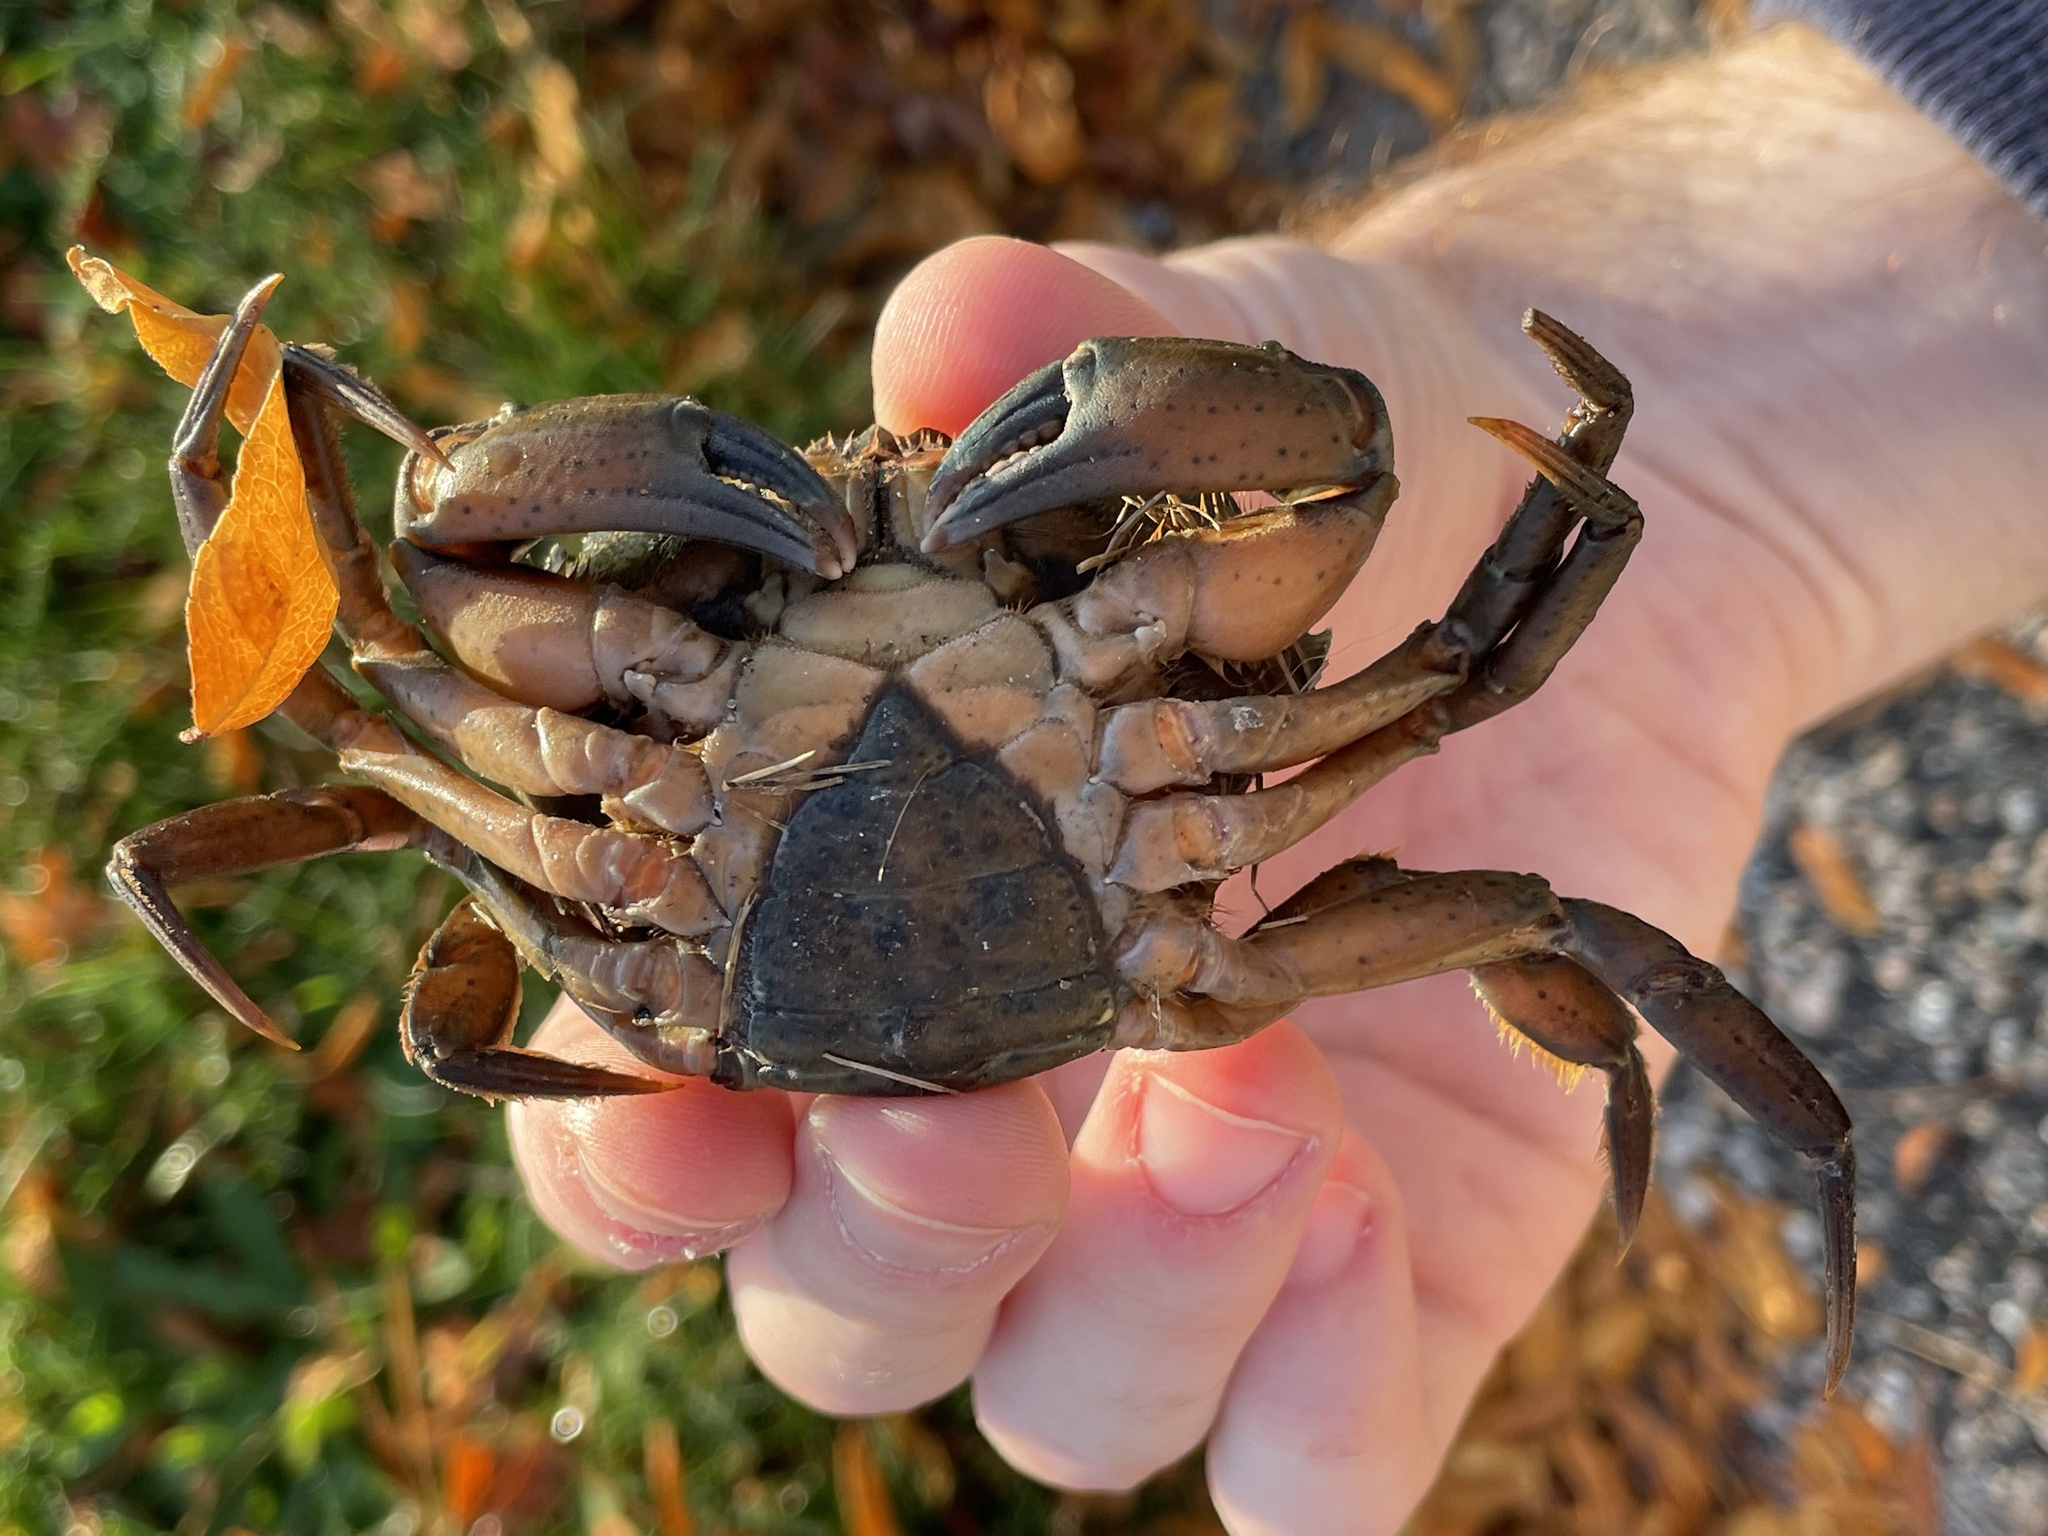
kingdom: Animalia
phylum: Arthropoda
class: Malacostraca
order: Decapoda
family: Carcinidae
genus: Carcinus
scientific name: Carcinus maenas
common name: European green crab
